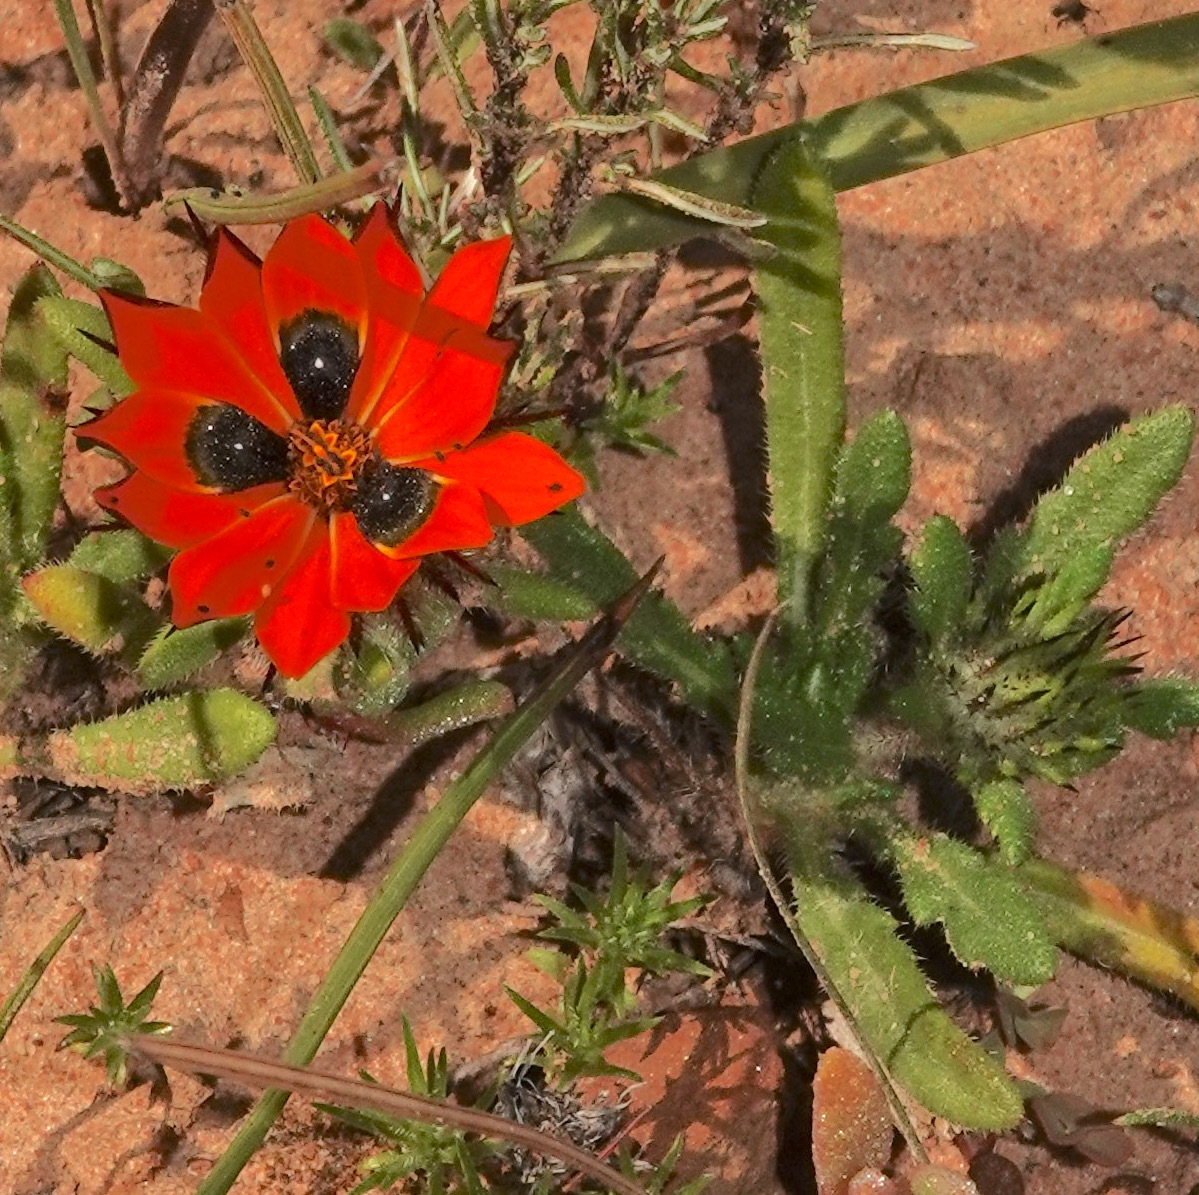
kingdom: Plantae
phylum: Tracheophyta
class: Magnoliopsida
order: Asterales
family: Asteraceae
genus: Gorteria
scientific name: Gorteria diffusa
